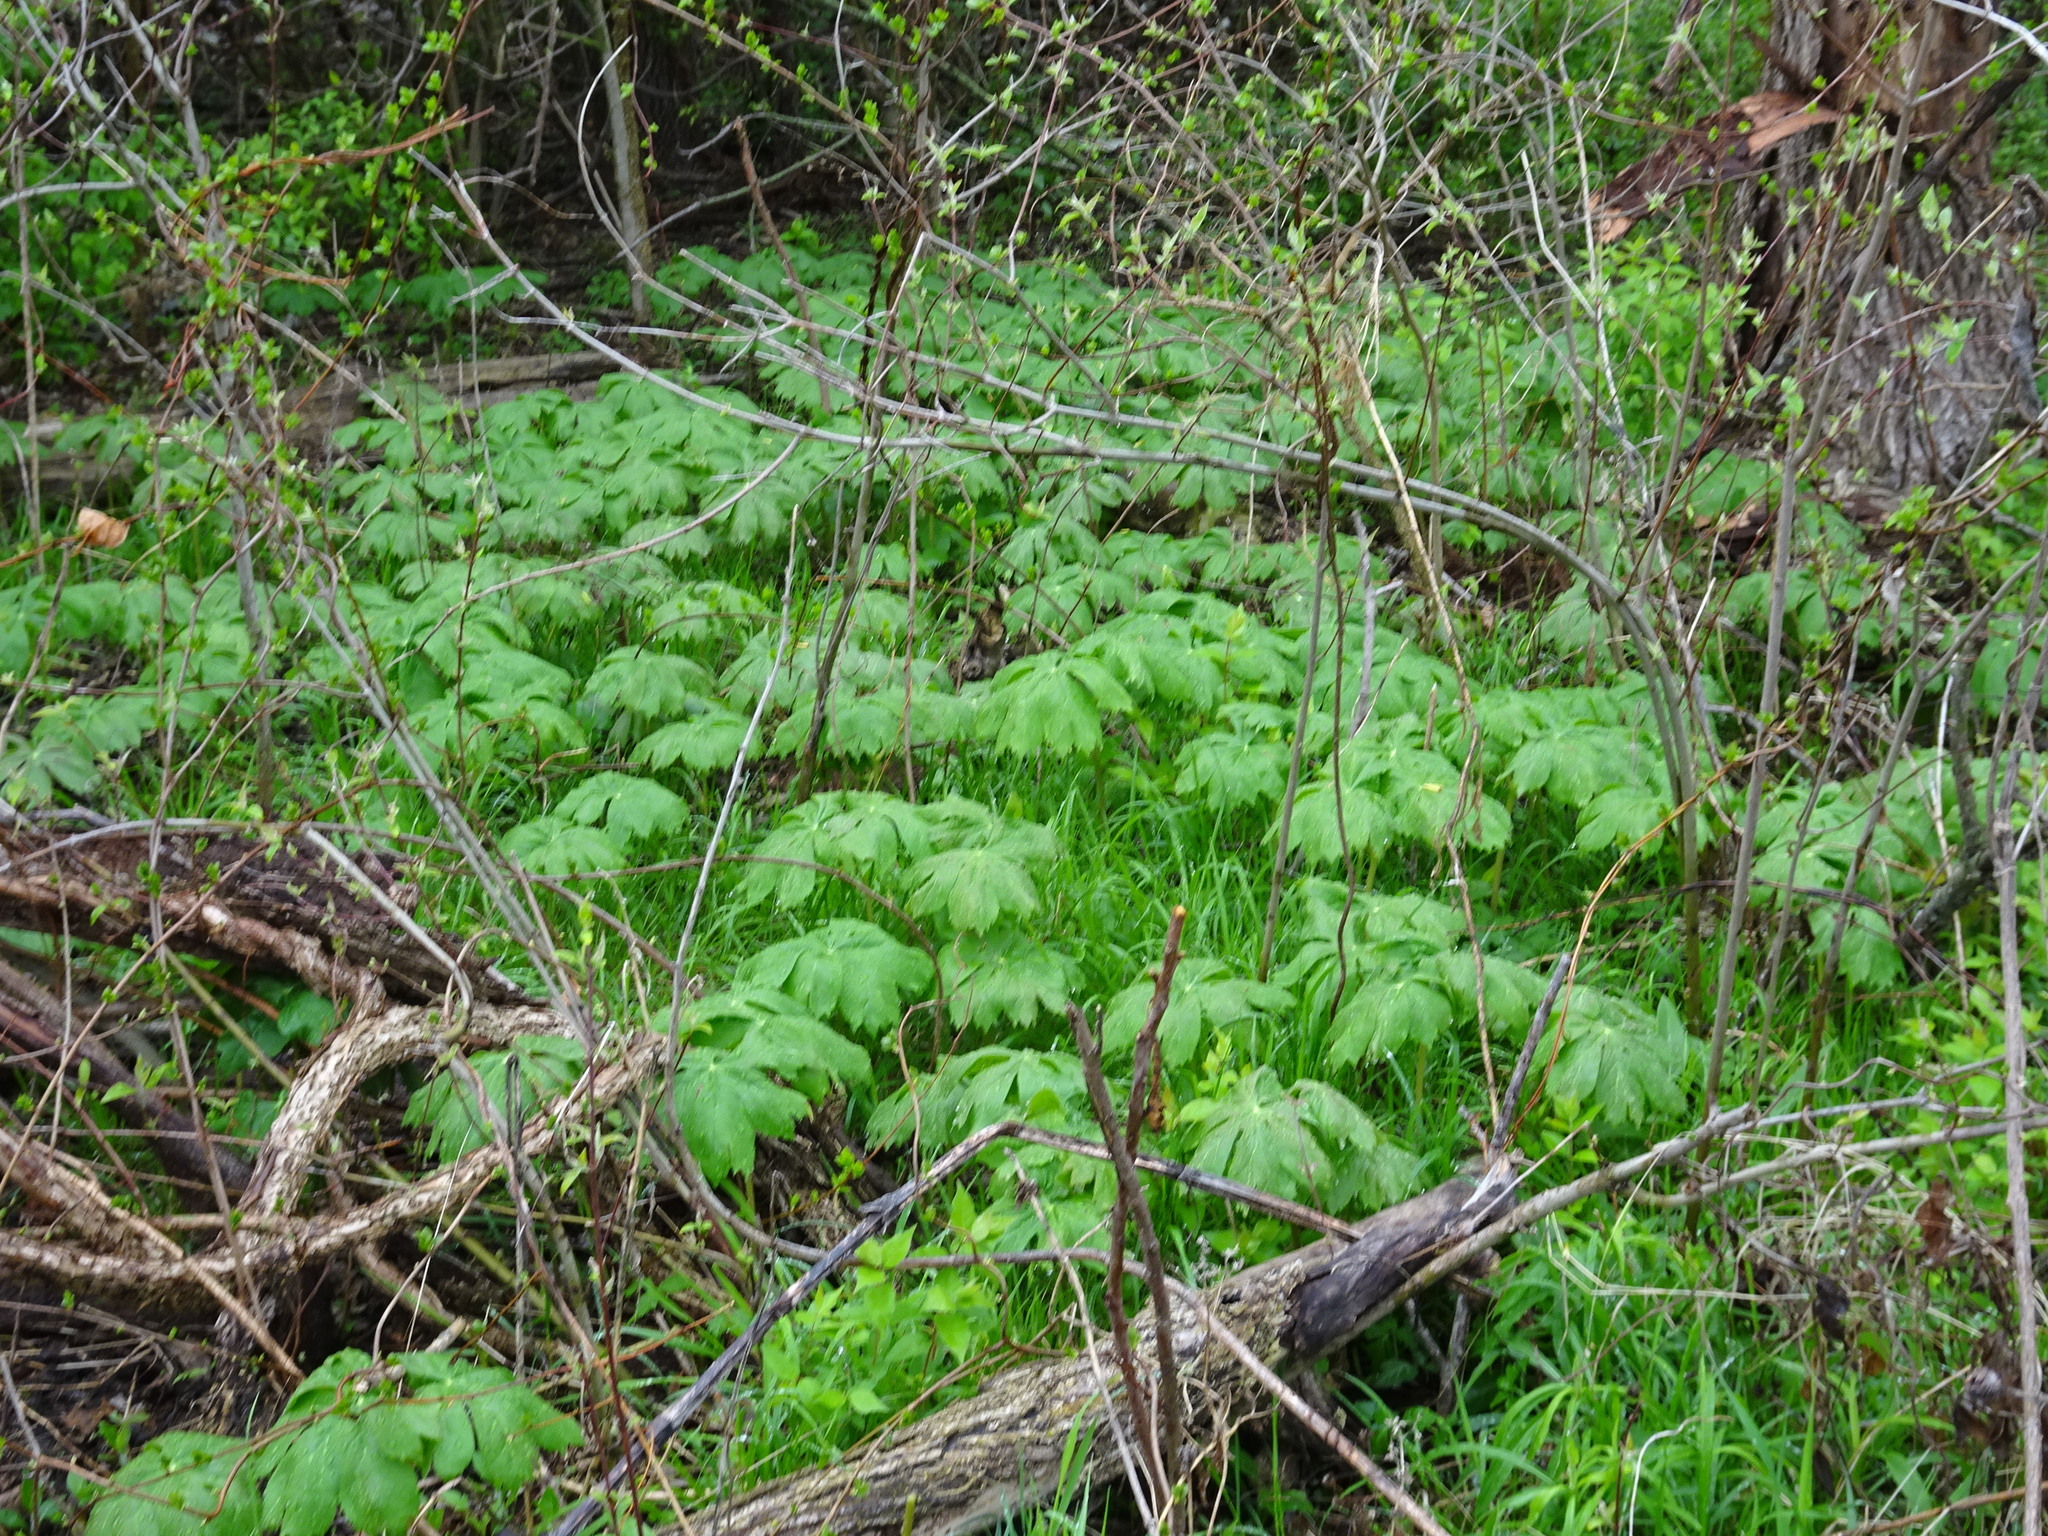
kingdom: Plantae
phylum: Tracheophyta
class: Magnoliopsida
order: Ranunculales
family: Berberidaceae
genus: Podophyllum
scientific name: Podophyllum peltatum
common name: Wild mandrake
